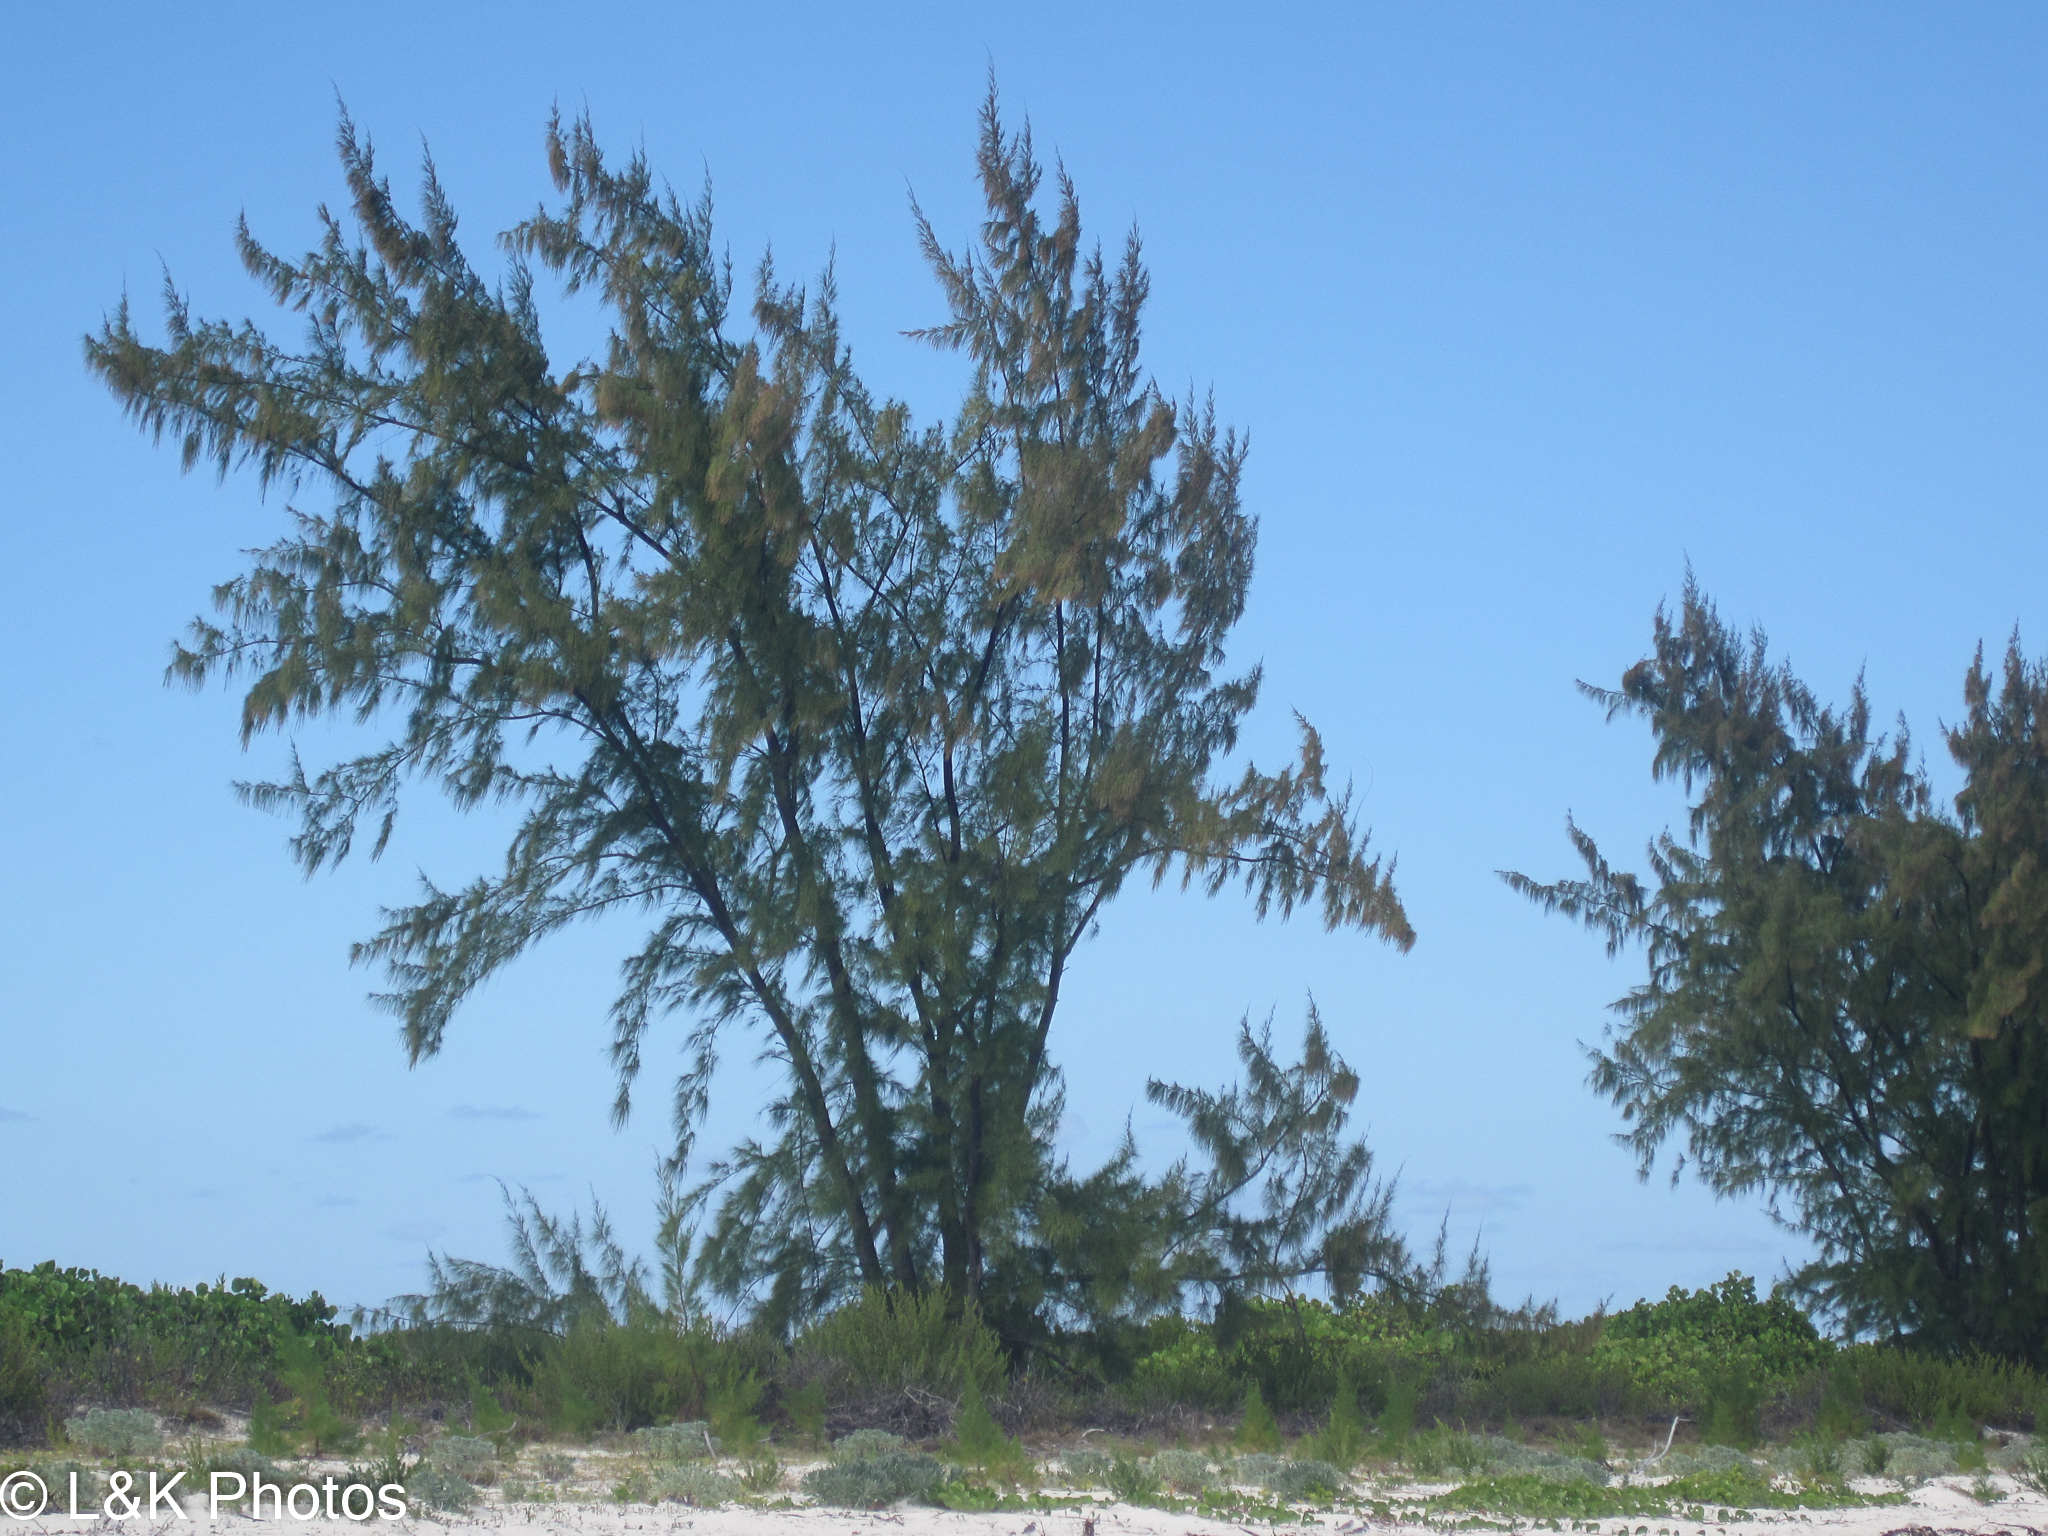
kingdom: Plantae
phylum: Tracheophyta
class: Magnoliopsida
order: Fagales
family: Casuarinaceae
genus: Casuarina
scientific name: Casuarina equisetifolia
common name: Beach sheoak
